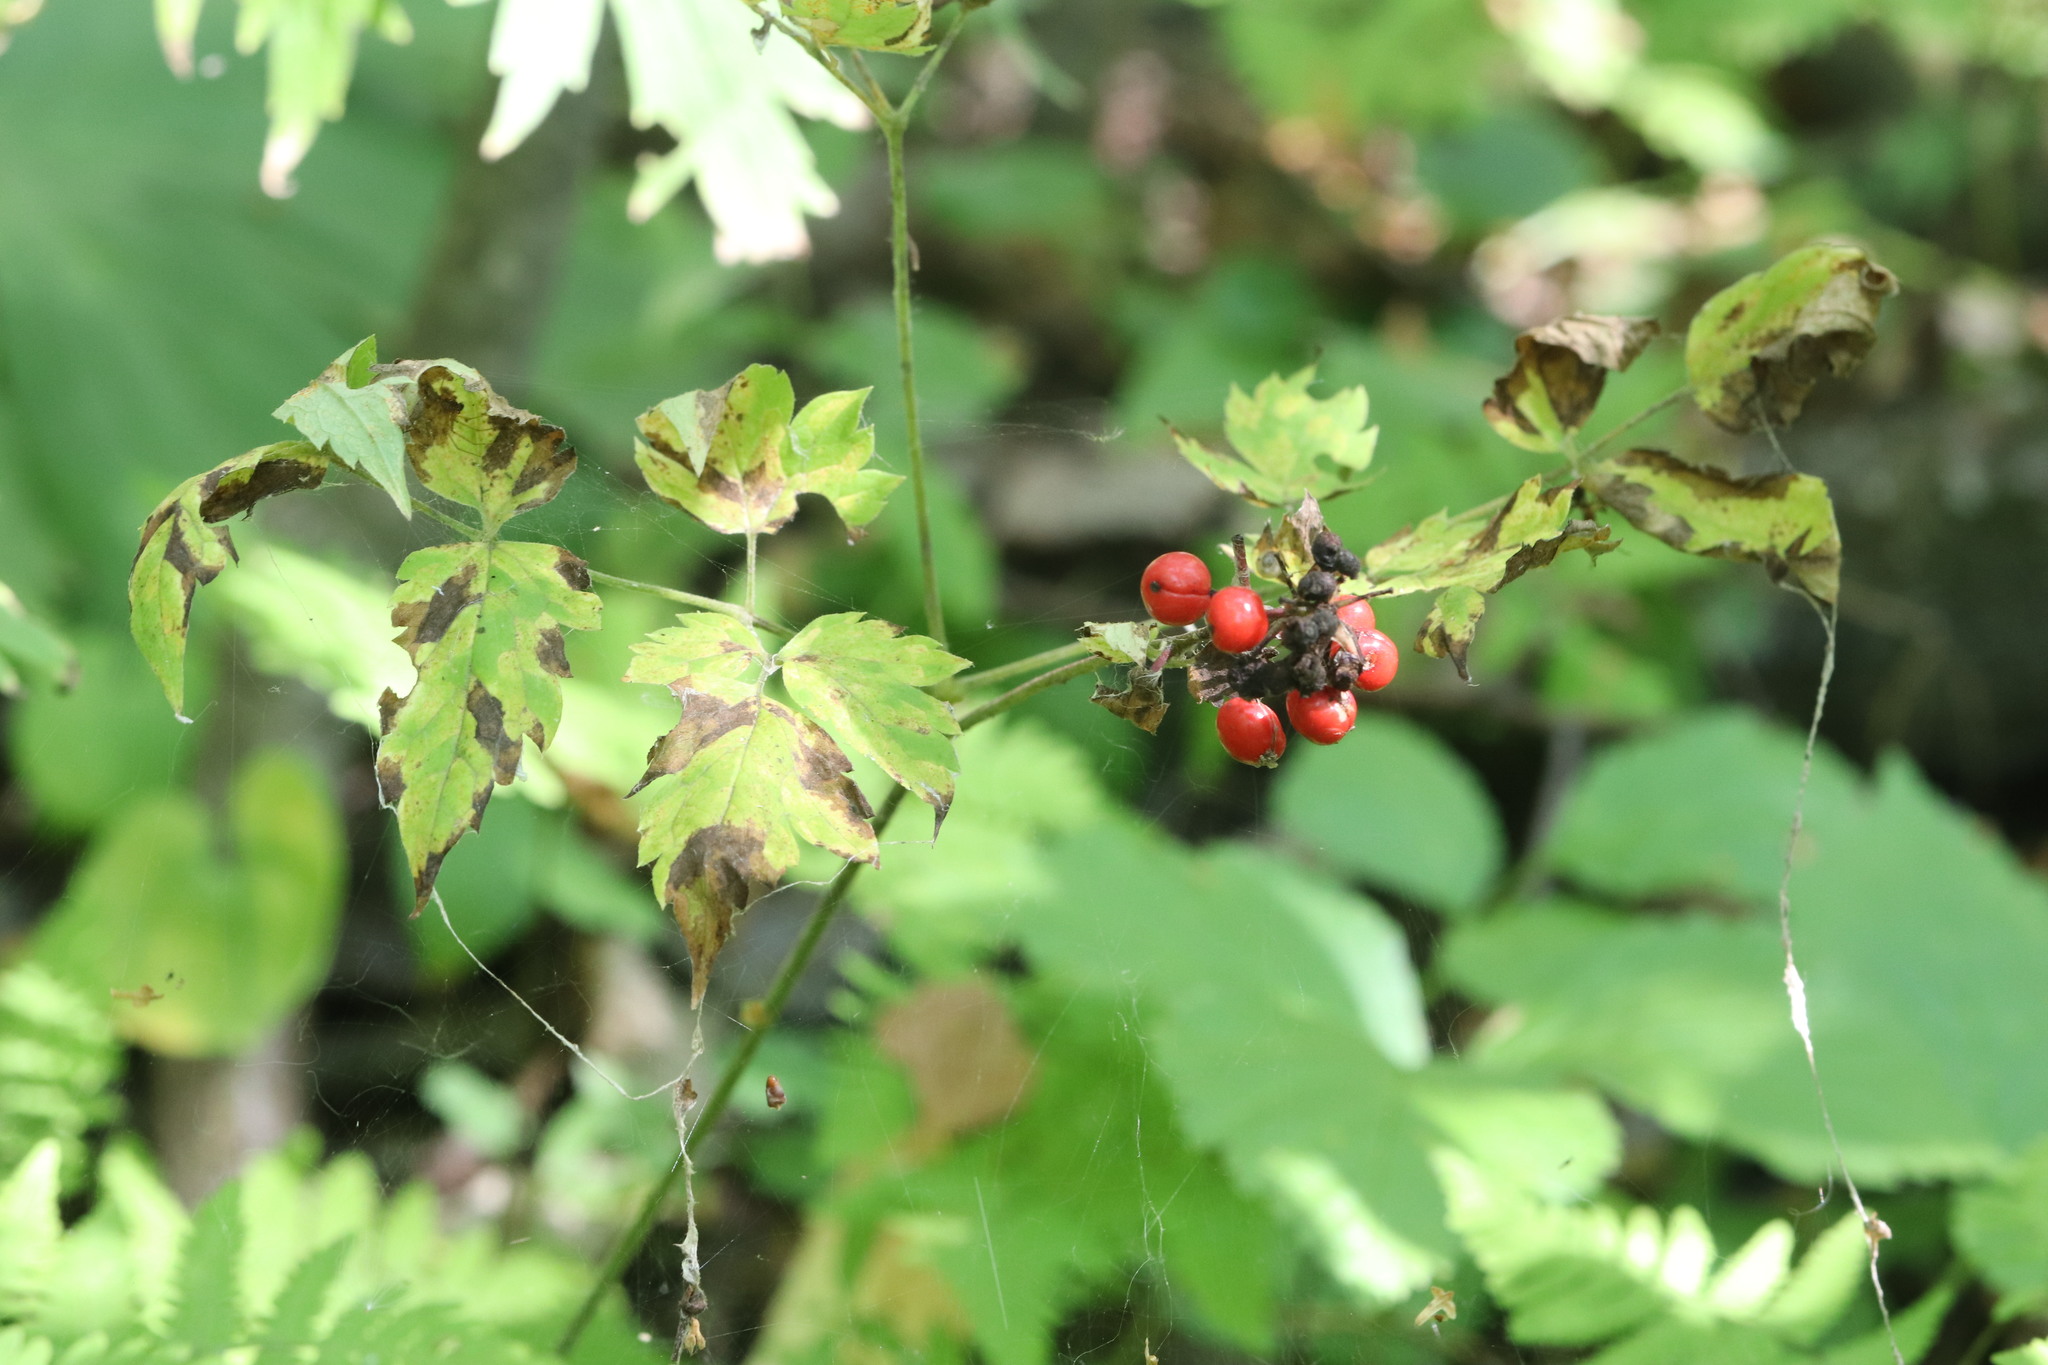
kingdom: Plantae
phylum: Tracheophyta
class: Magnoliopsida
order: Ranunculales
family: Ranunculaceae
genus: Actaea
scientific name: Actaea erythrocarpa
